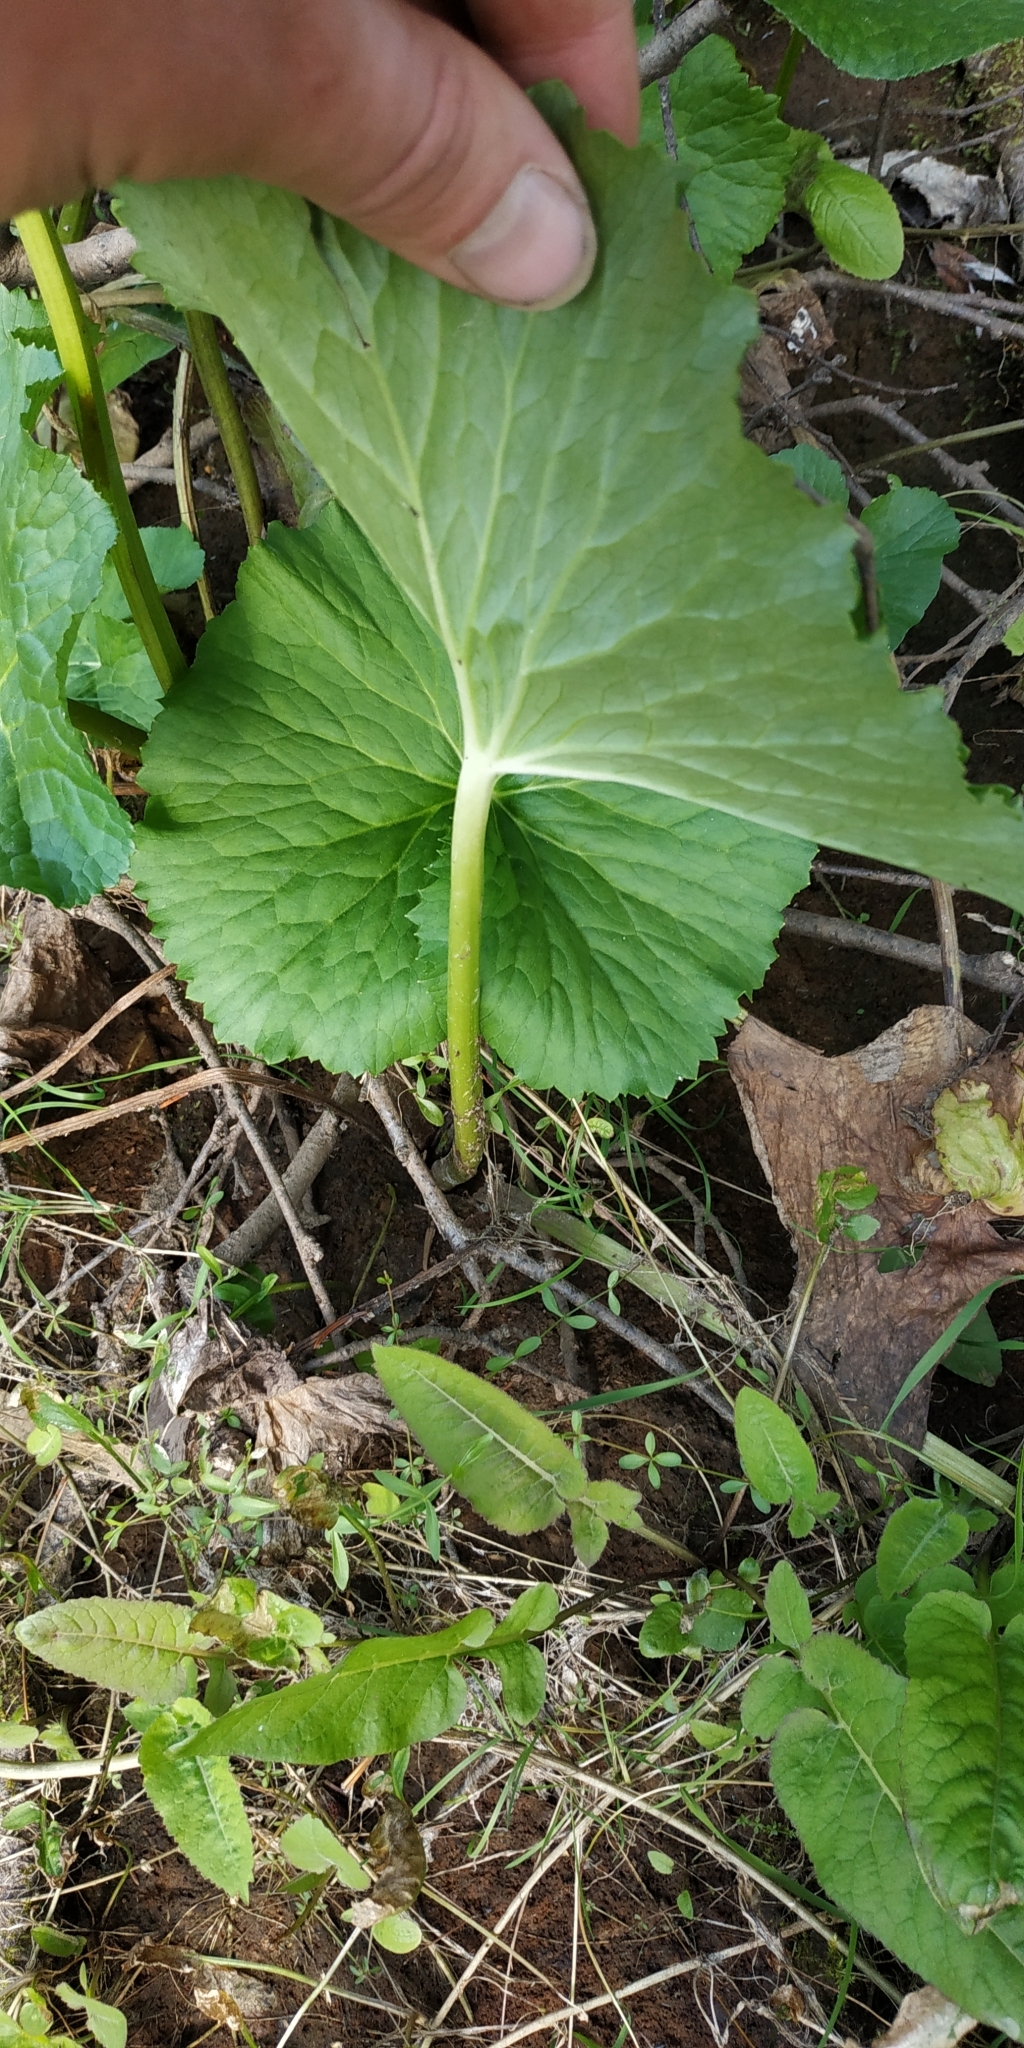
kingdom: Plantae
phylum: Tracheophyta
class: Magnoliopsida
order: Ranunculales
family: Ranunculaceae
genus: Caltha
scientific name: Caltha palustris
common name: Marsh marigold
